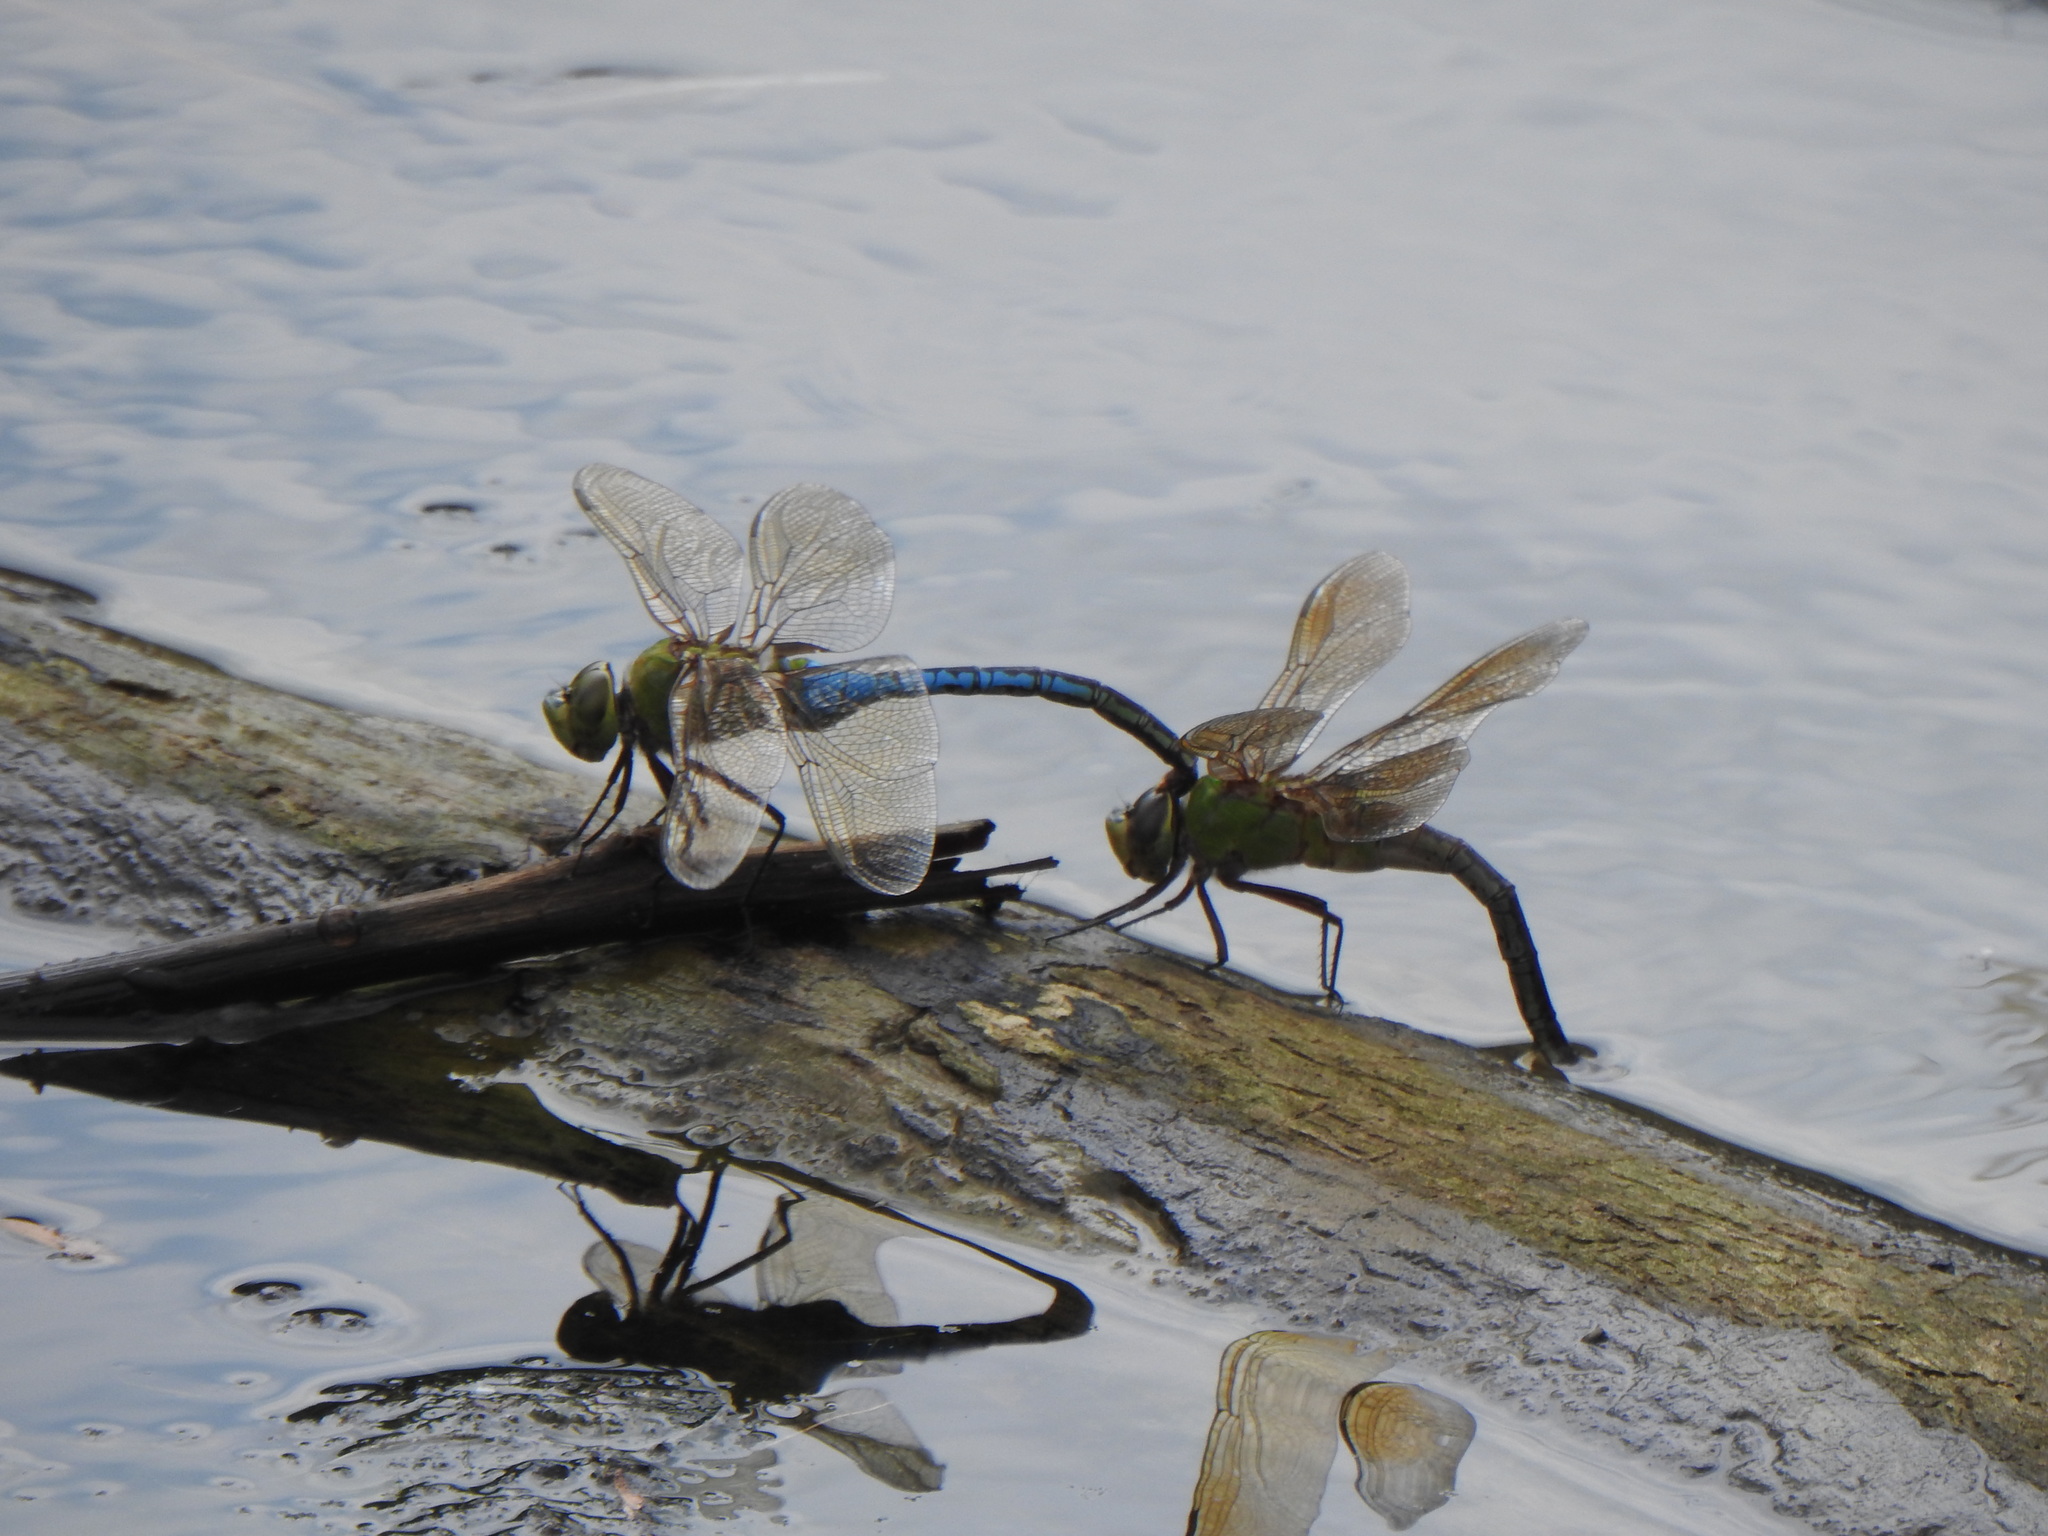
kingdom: Animalia
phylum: Arthropoda
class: Insecta
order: Odonata
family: Aeshnidae
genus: Anax
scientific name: Anax junius
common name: Common green darner
